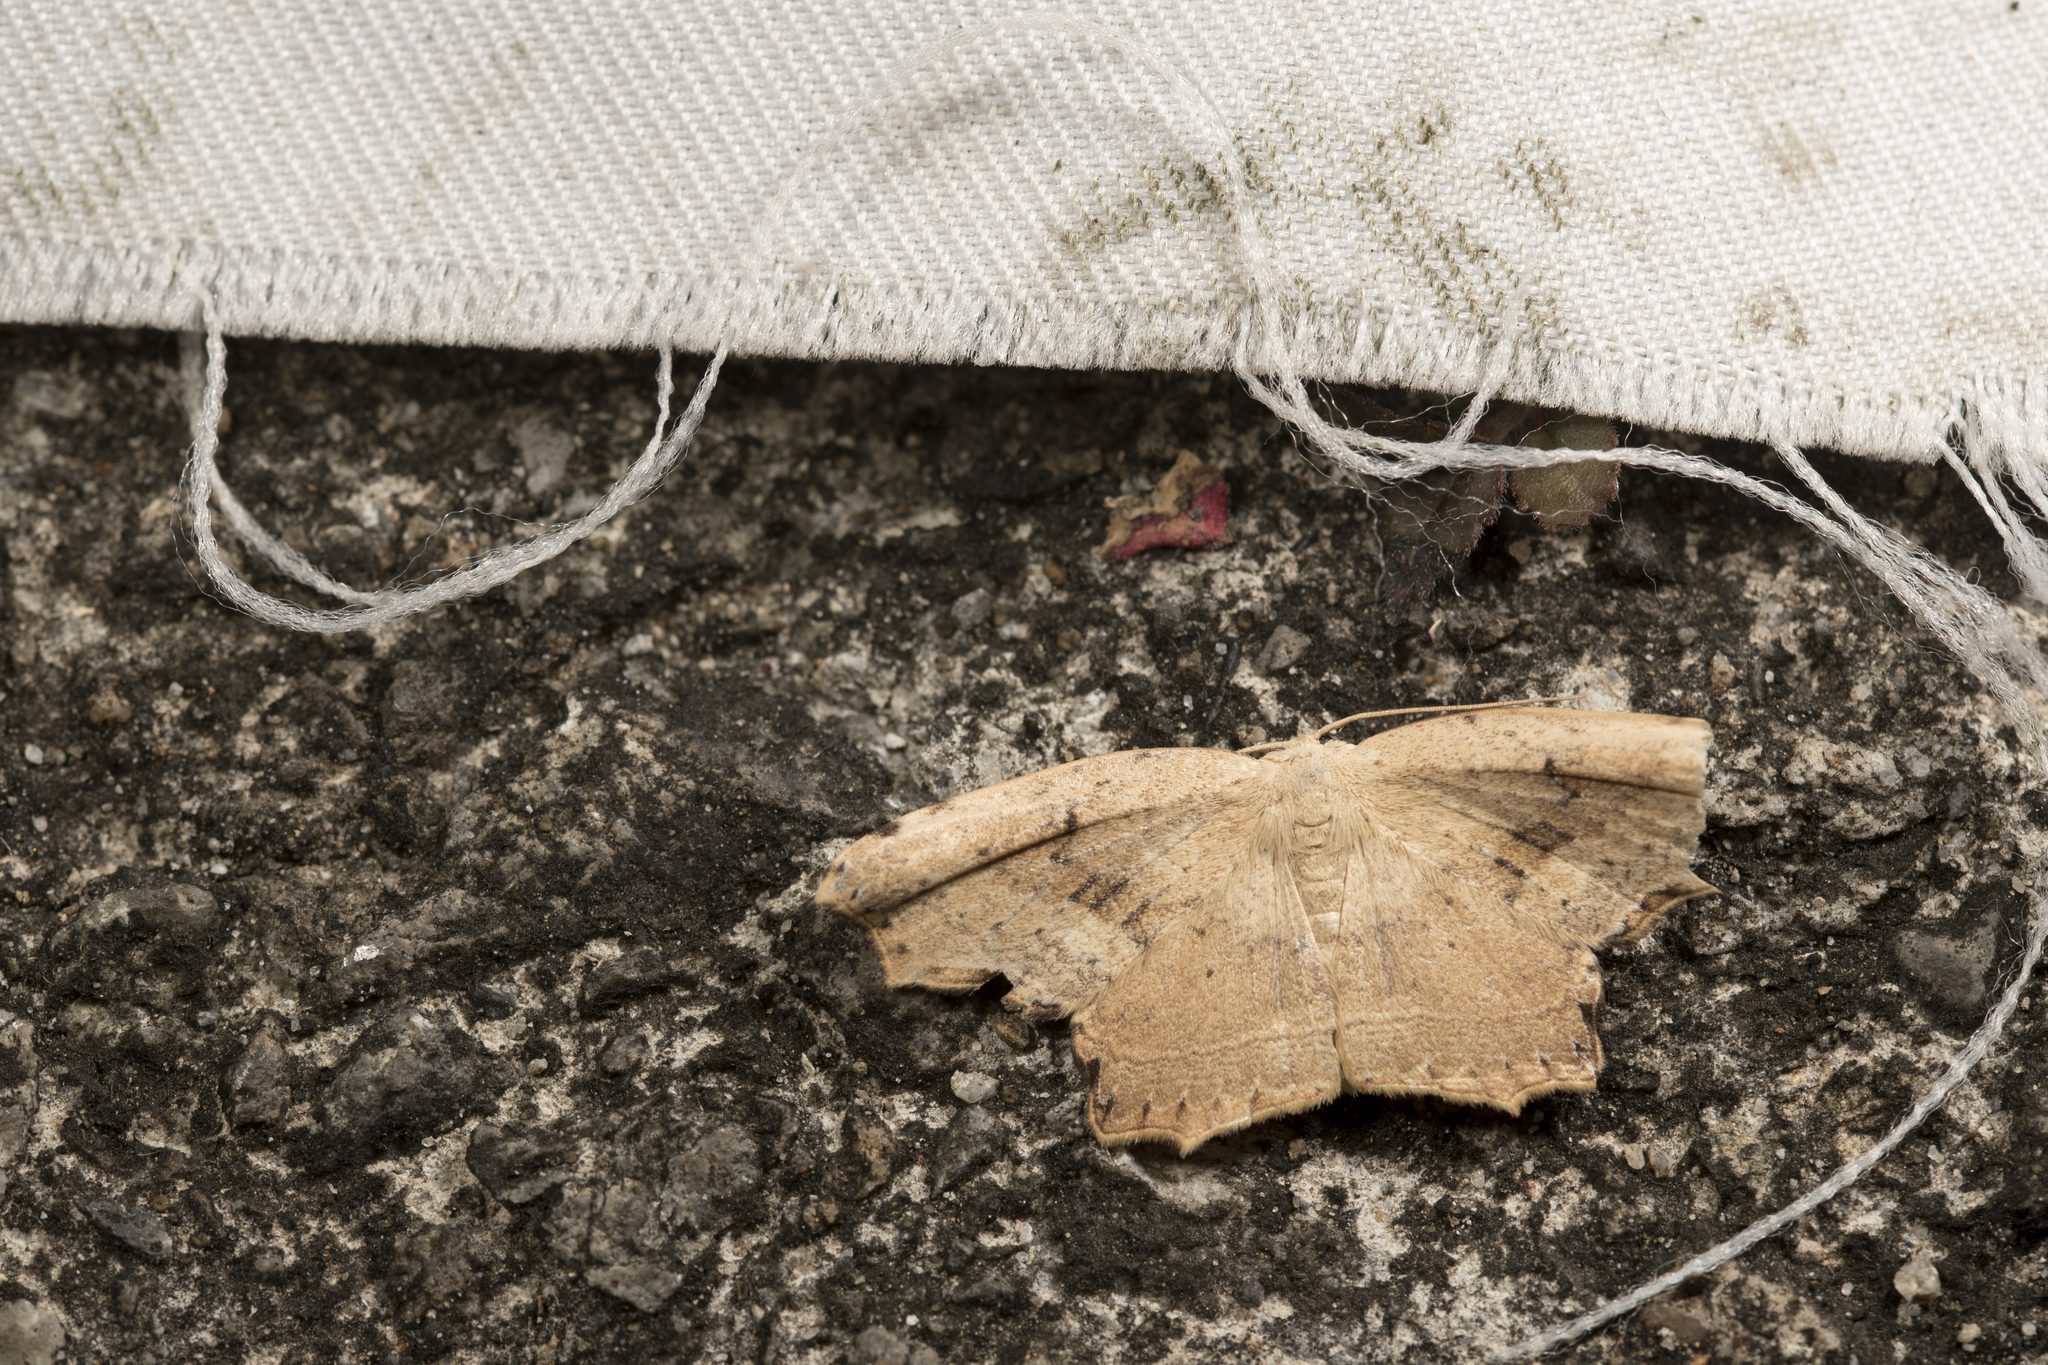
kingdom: Animalia
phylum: Arthropoda
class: Insecta
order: Lepidoptera
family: Drepanidae
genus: Phalacra
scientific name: Phalacra strigata
